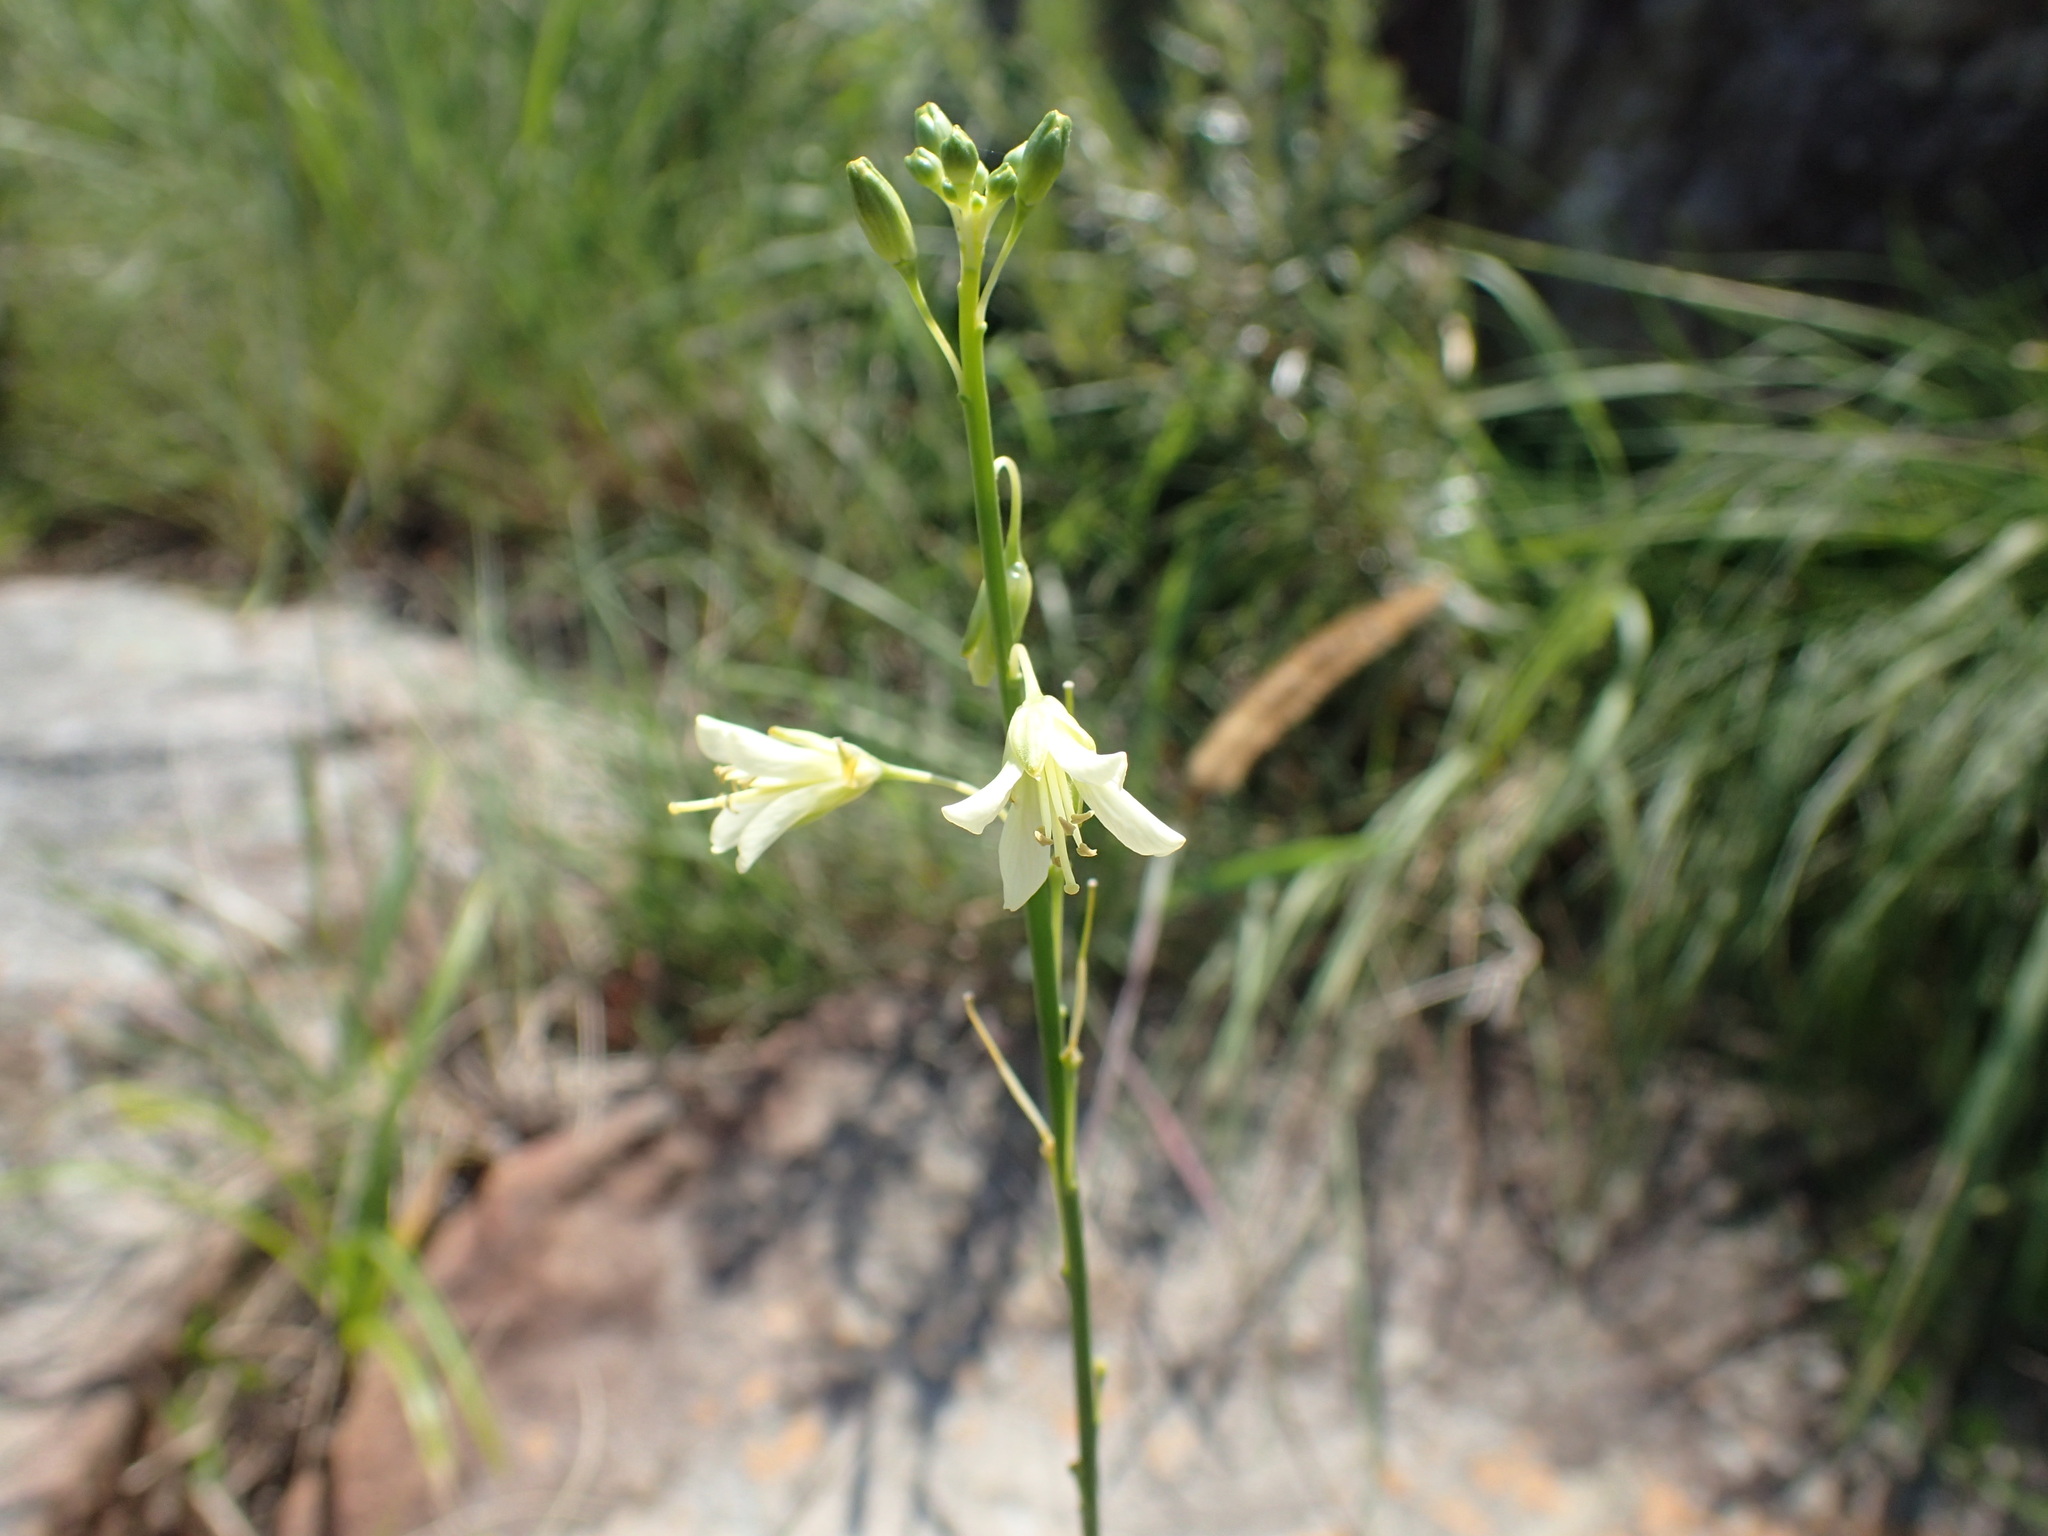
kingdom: Plantae
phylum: Tracheophyta
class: Magnoliopsida
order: Brassicales
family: Brassicaceae
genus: Heliophila
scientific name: Heliophila elongata
